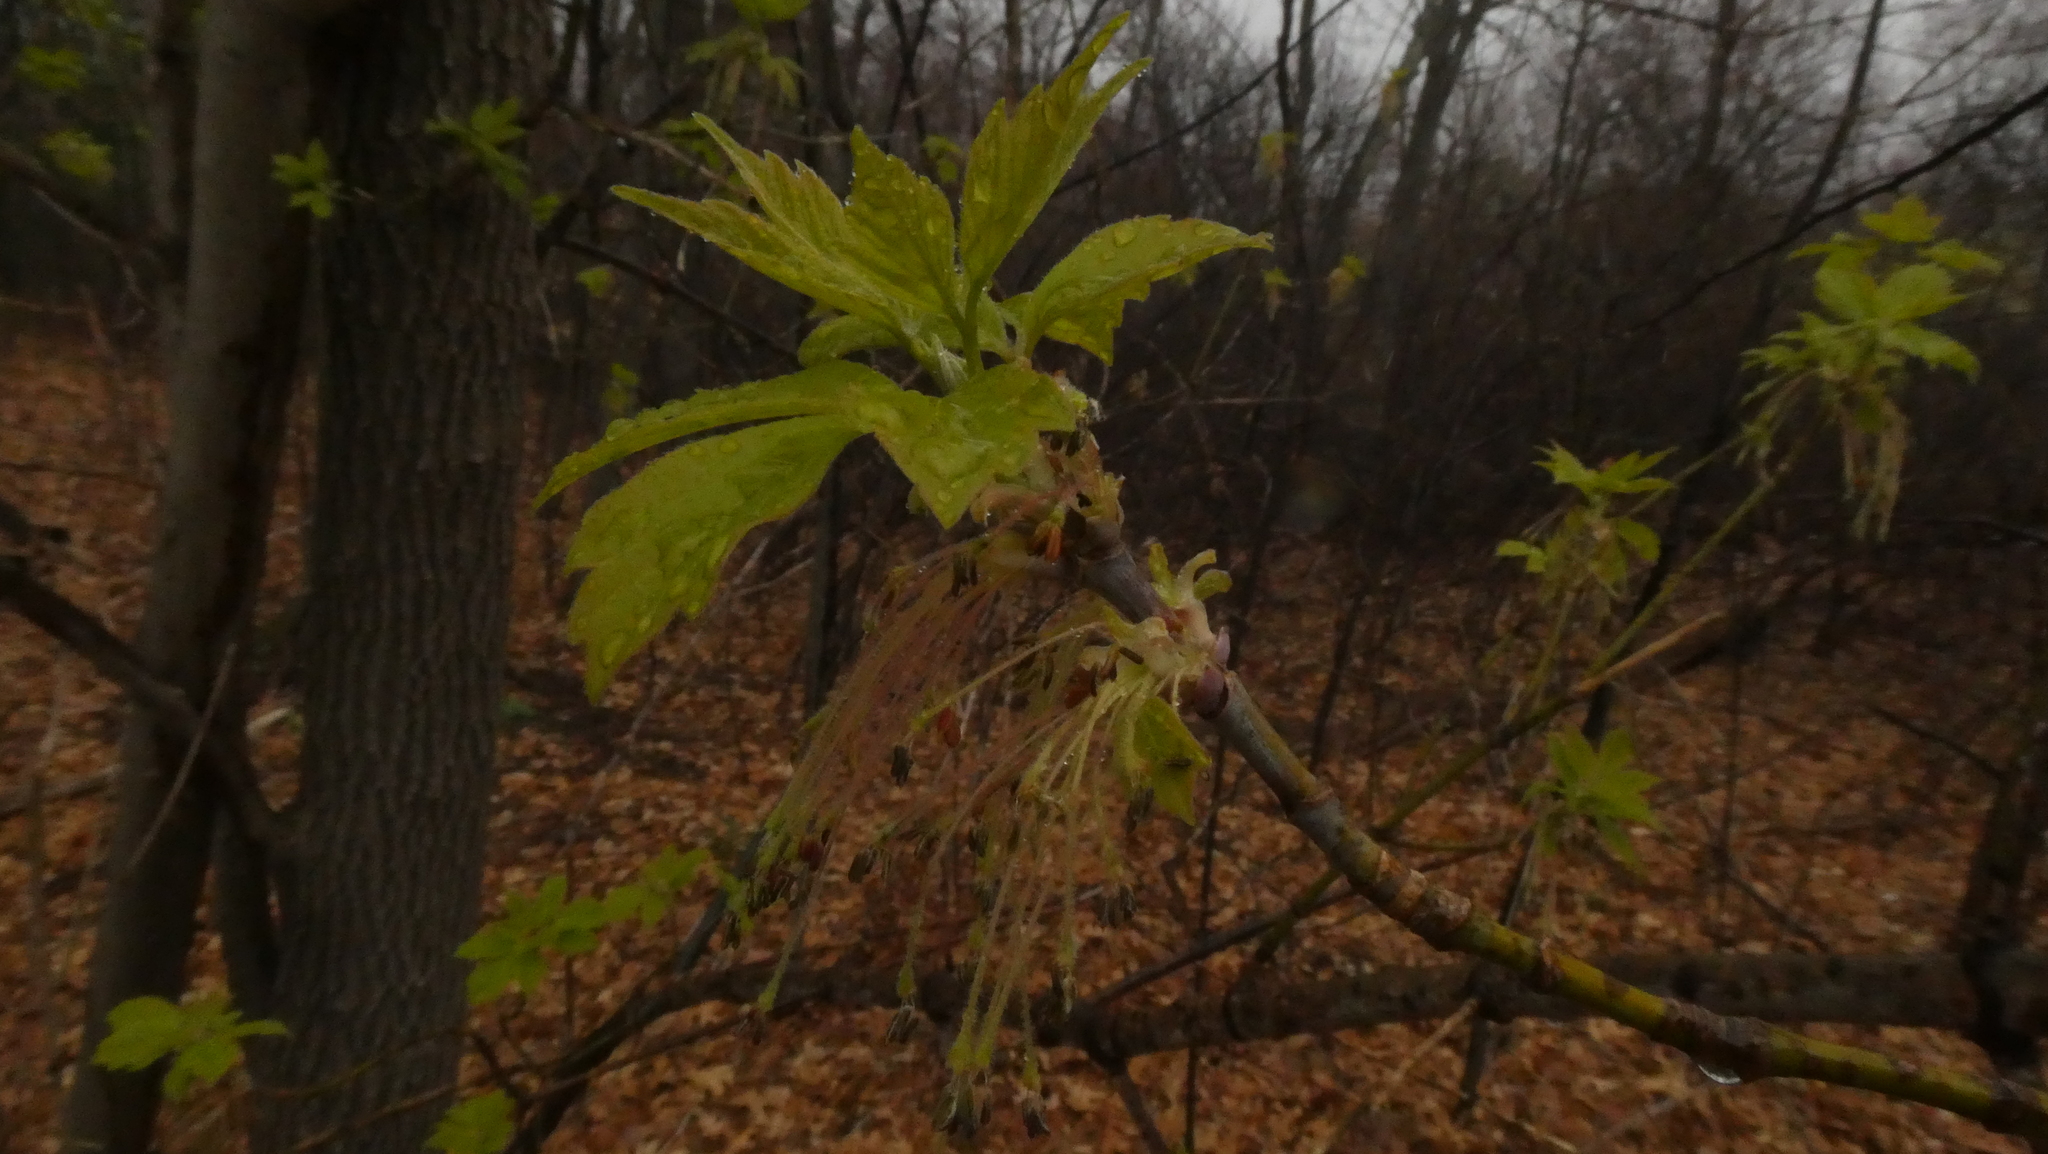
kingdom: Plantae
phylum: Tracheophyta
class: Magnoliopsida
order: Sapindales
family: Sapindaceae
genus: Acer
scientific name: Acer negundo
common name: Ashleaf maple
